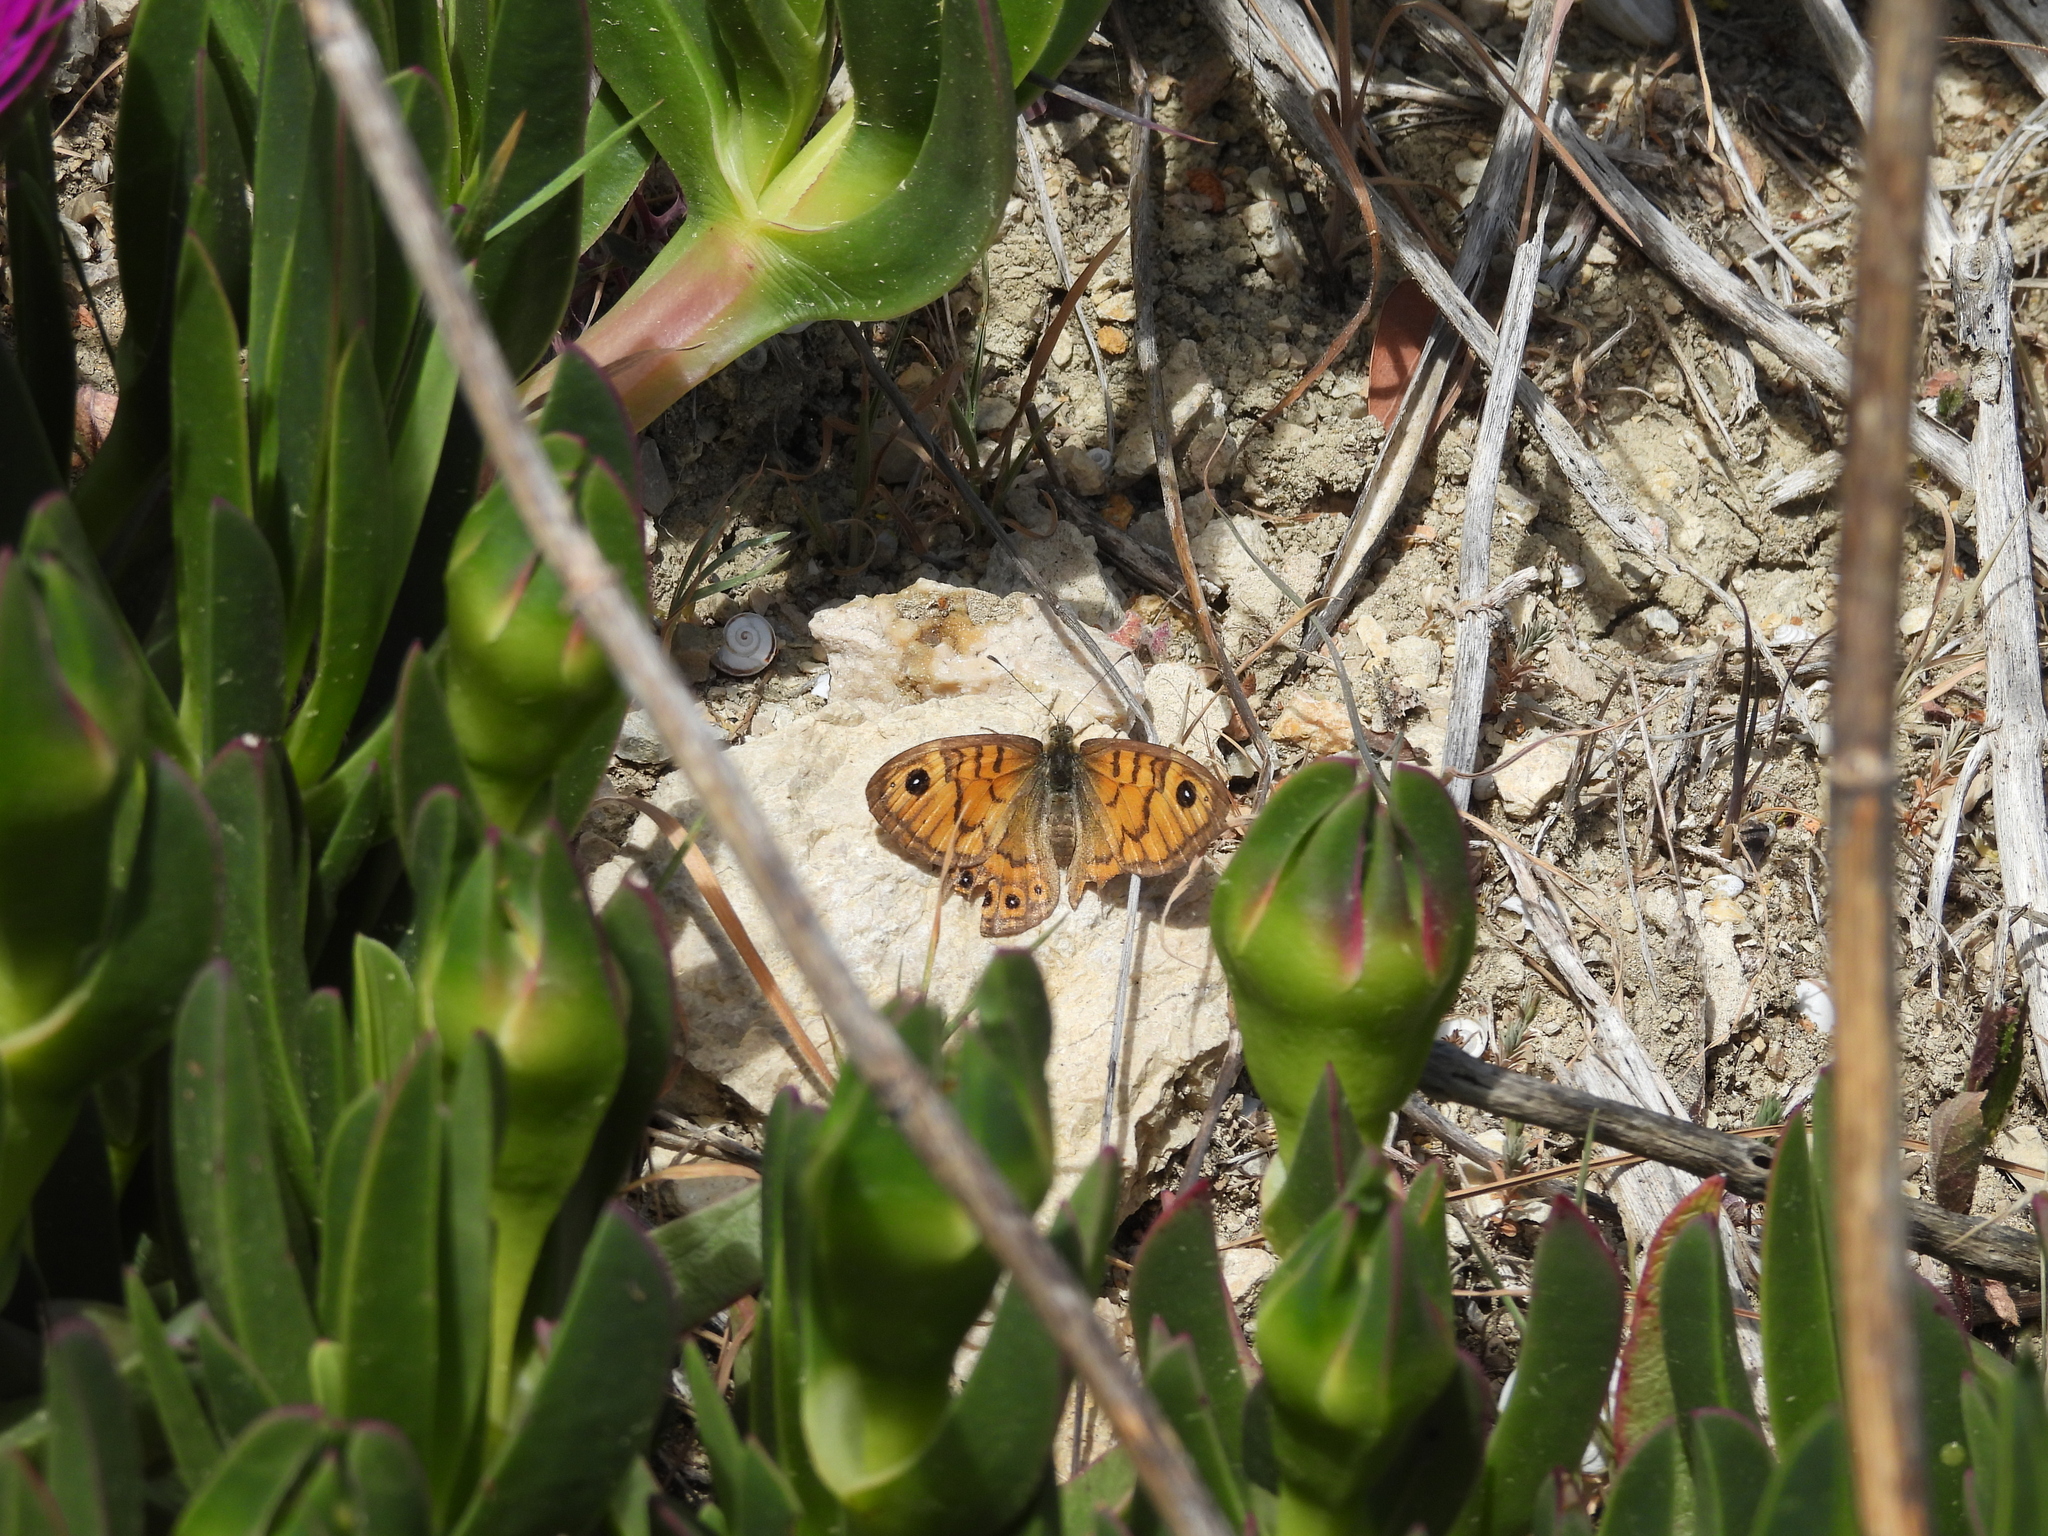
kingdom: Animalia
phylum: Arthropoda
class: Insecta
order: Lepidoptera
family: Nymphalidae
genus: Pararge
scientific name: Pararge Lasiommata megera
